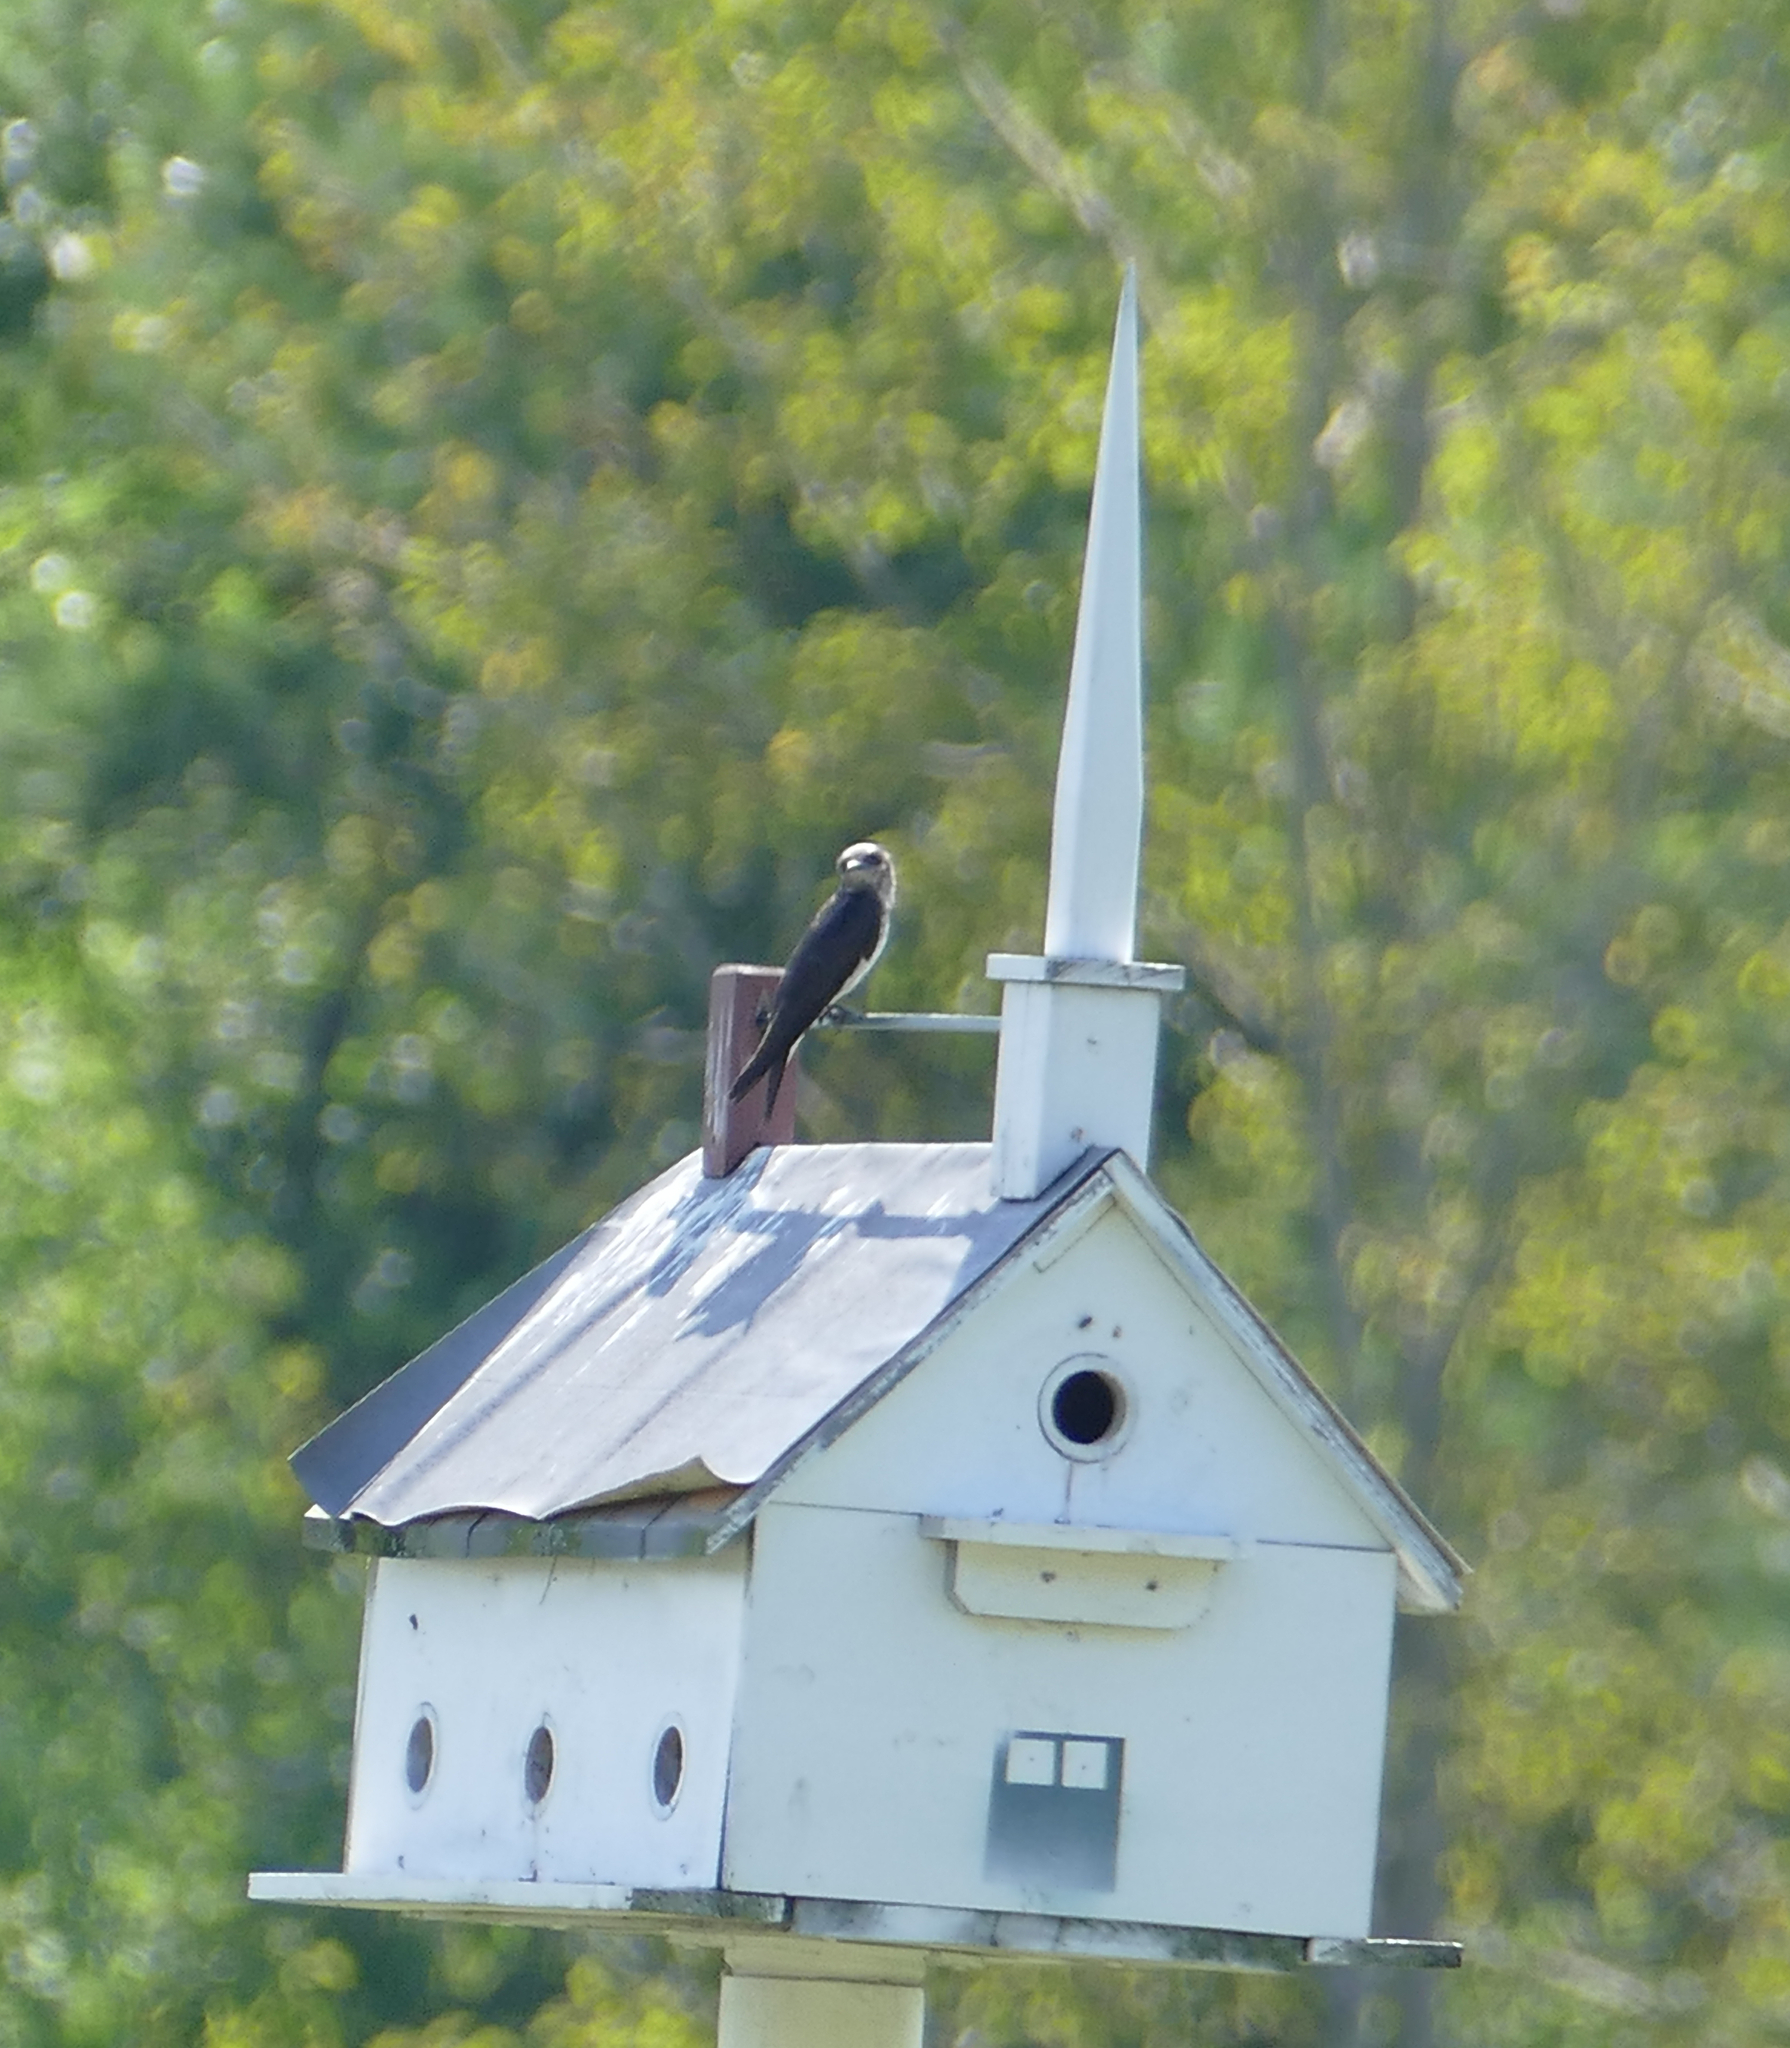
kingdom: Animalia
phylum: Chordata
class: Aves
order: Passeriformes
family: Hirundinidae
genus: Progne
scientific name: Progne subis
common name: Purple martin
